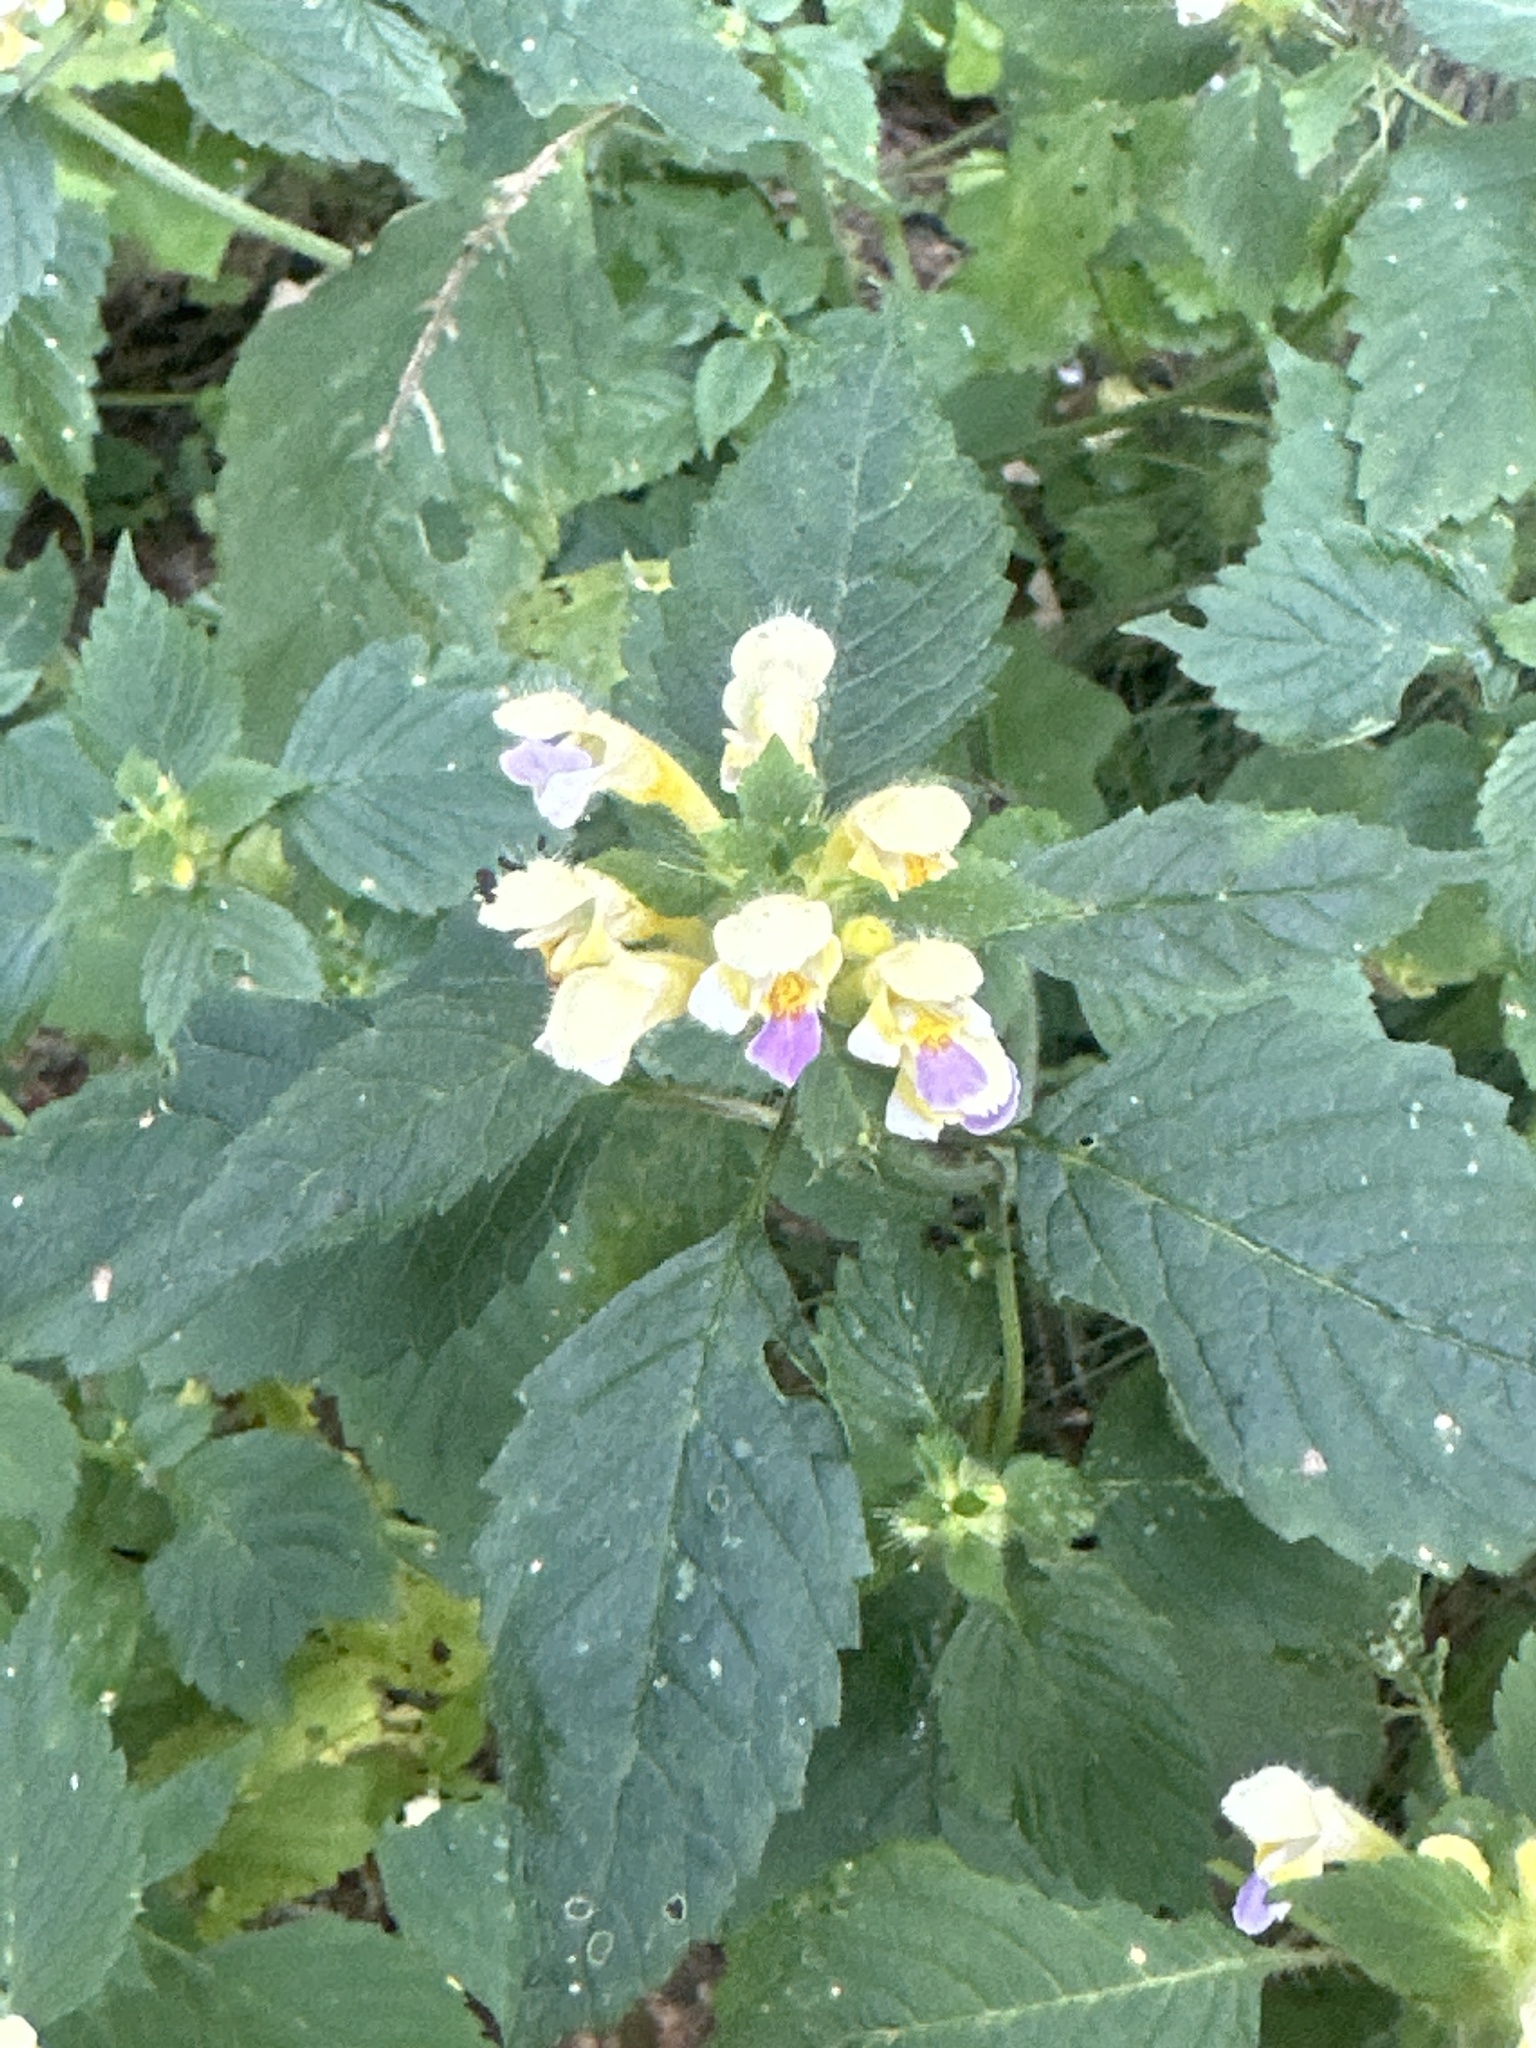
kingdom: Plantae
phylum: Tracheophyta
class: Magnoliopsida
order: Lamiales
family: Lamiaceae
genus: Galeopsis
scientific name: Galeopsis speciosa
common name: Large-flowered hemp-nettle
